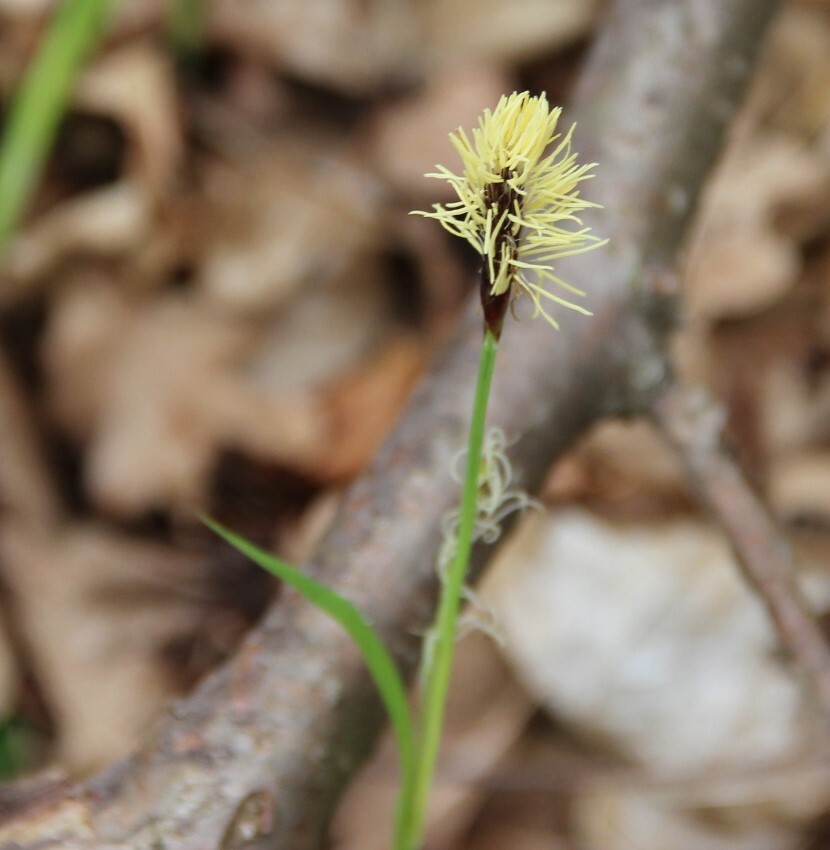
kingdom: Plantae
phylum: Tracheophyta
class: Liliopsida
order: Poales
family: Cyperaceae
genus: Carex
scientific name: Carex pilosa
